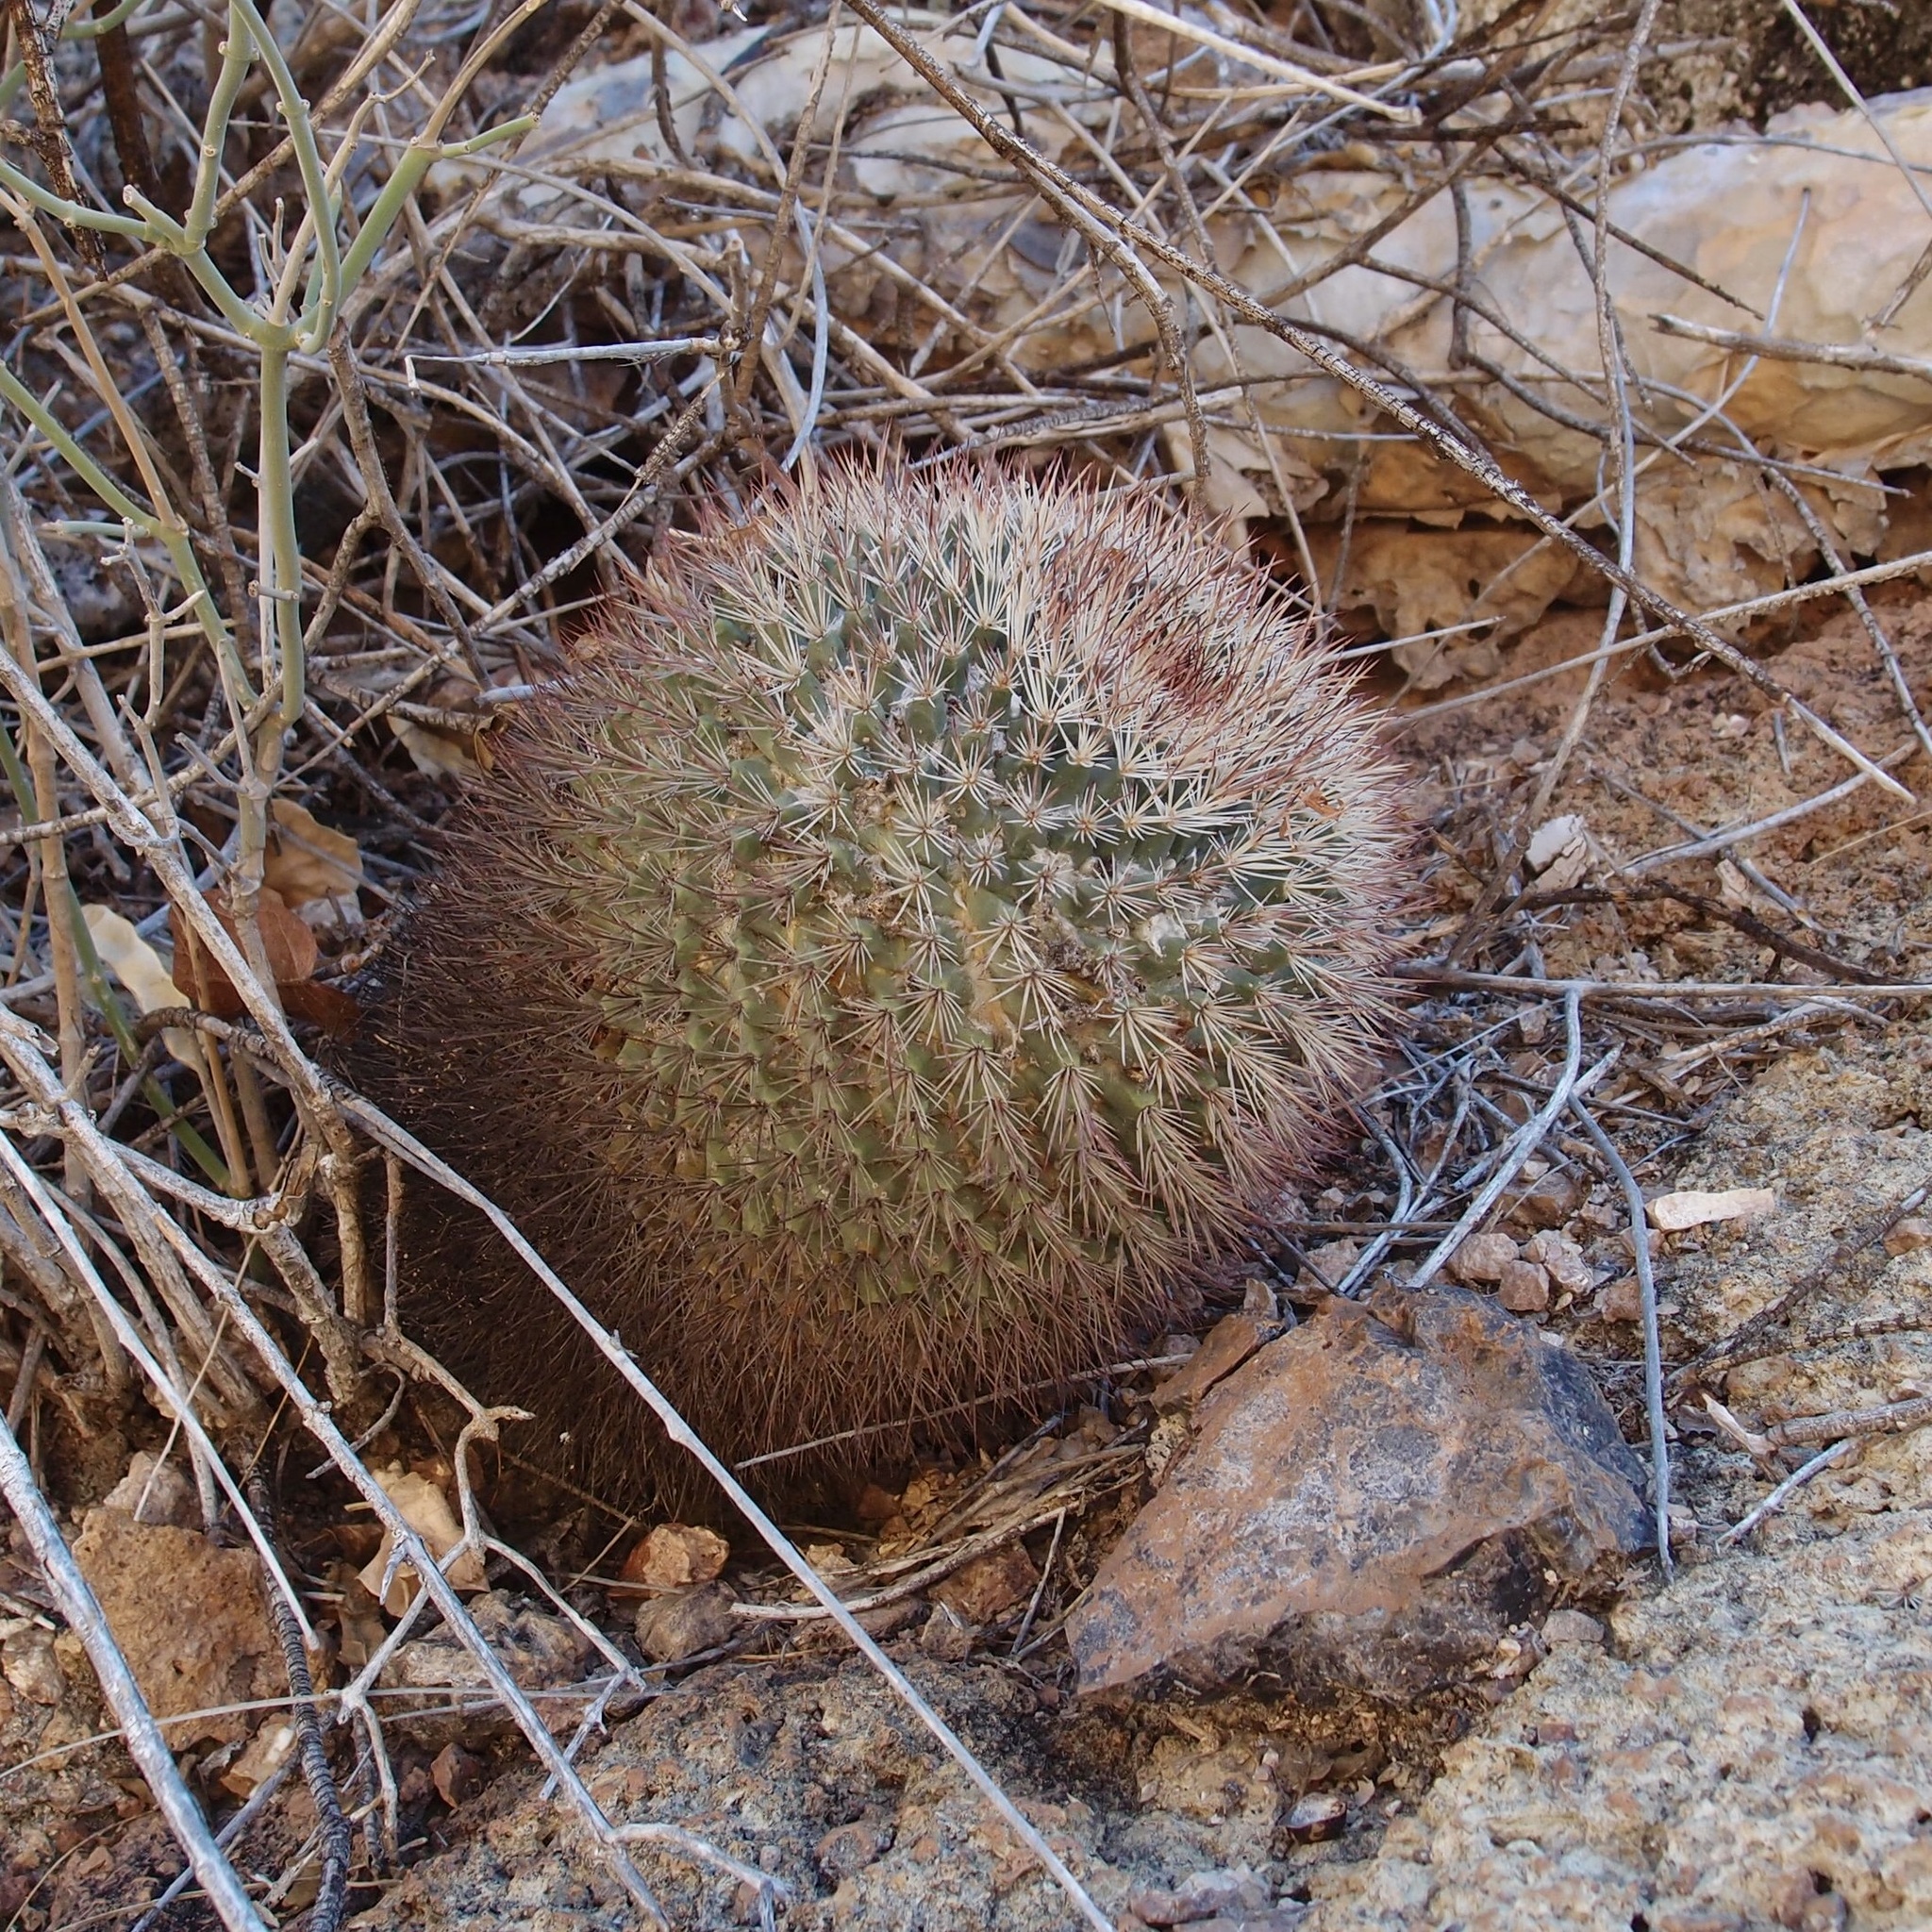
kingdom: Plantae
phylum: Tracheophyta
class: Magnoliopsida
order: Caryophyllales
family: Cactaceae
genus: Mammillaria
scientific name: Mammillaria johnstonii
